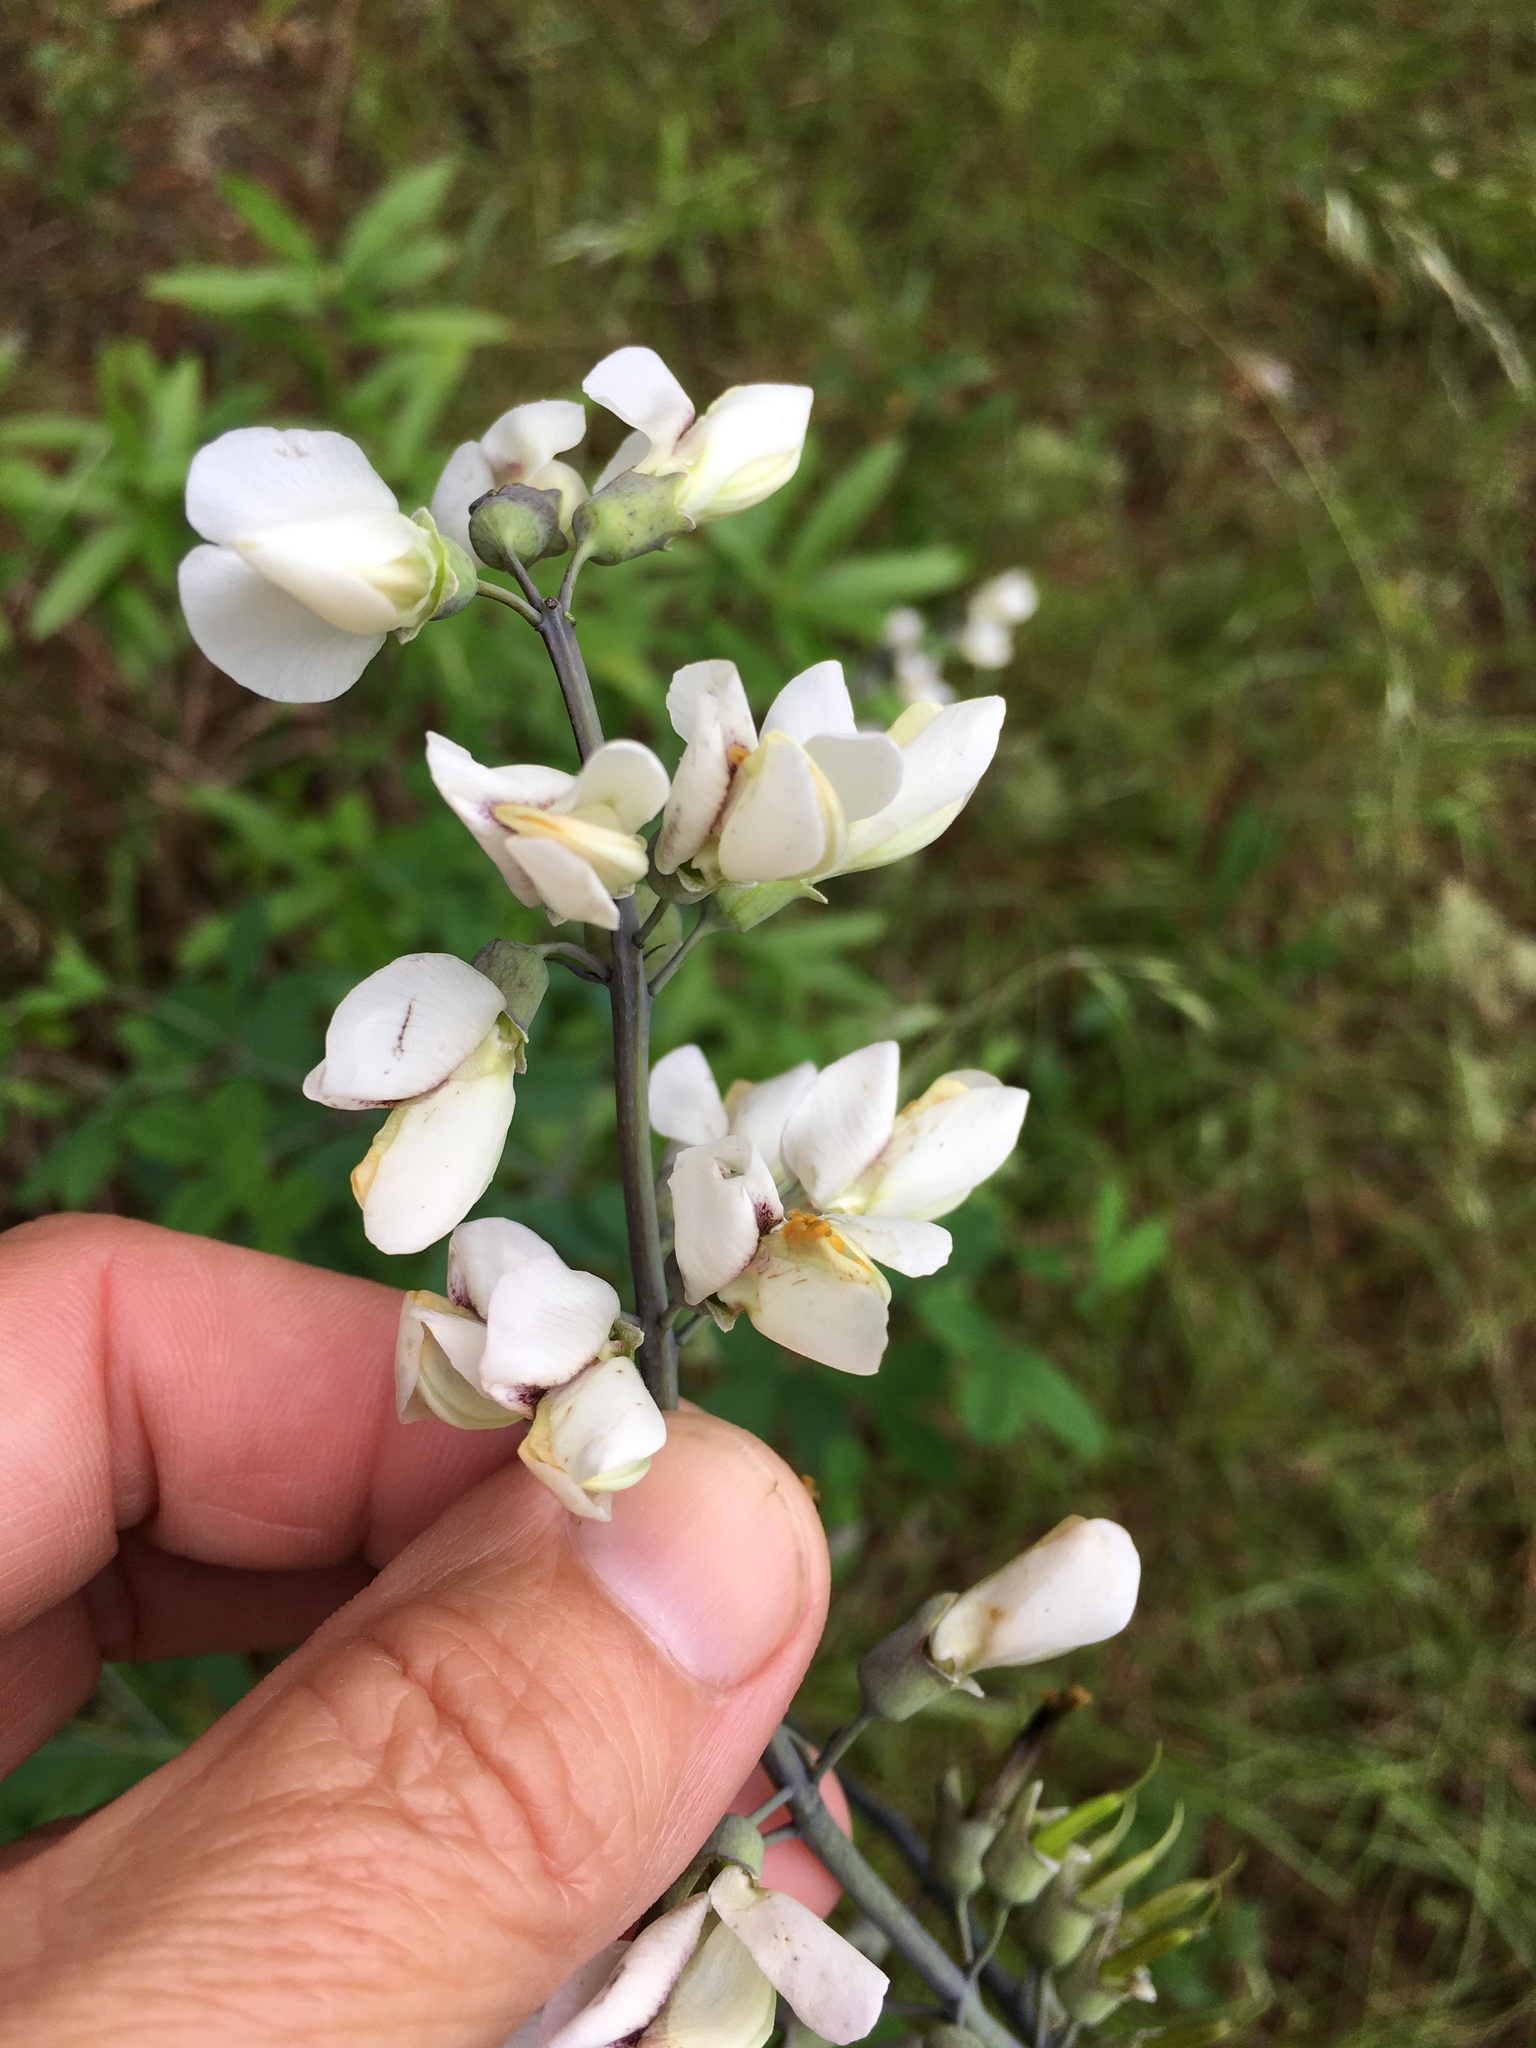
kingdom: Plantae
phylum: Tracheophyta
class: Magnoliopsida
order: Fabales
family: Fabaceae
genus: Baptisia
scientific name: Baptisia alba
